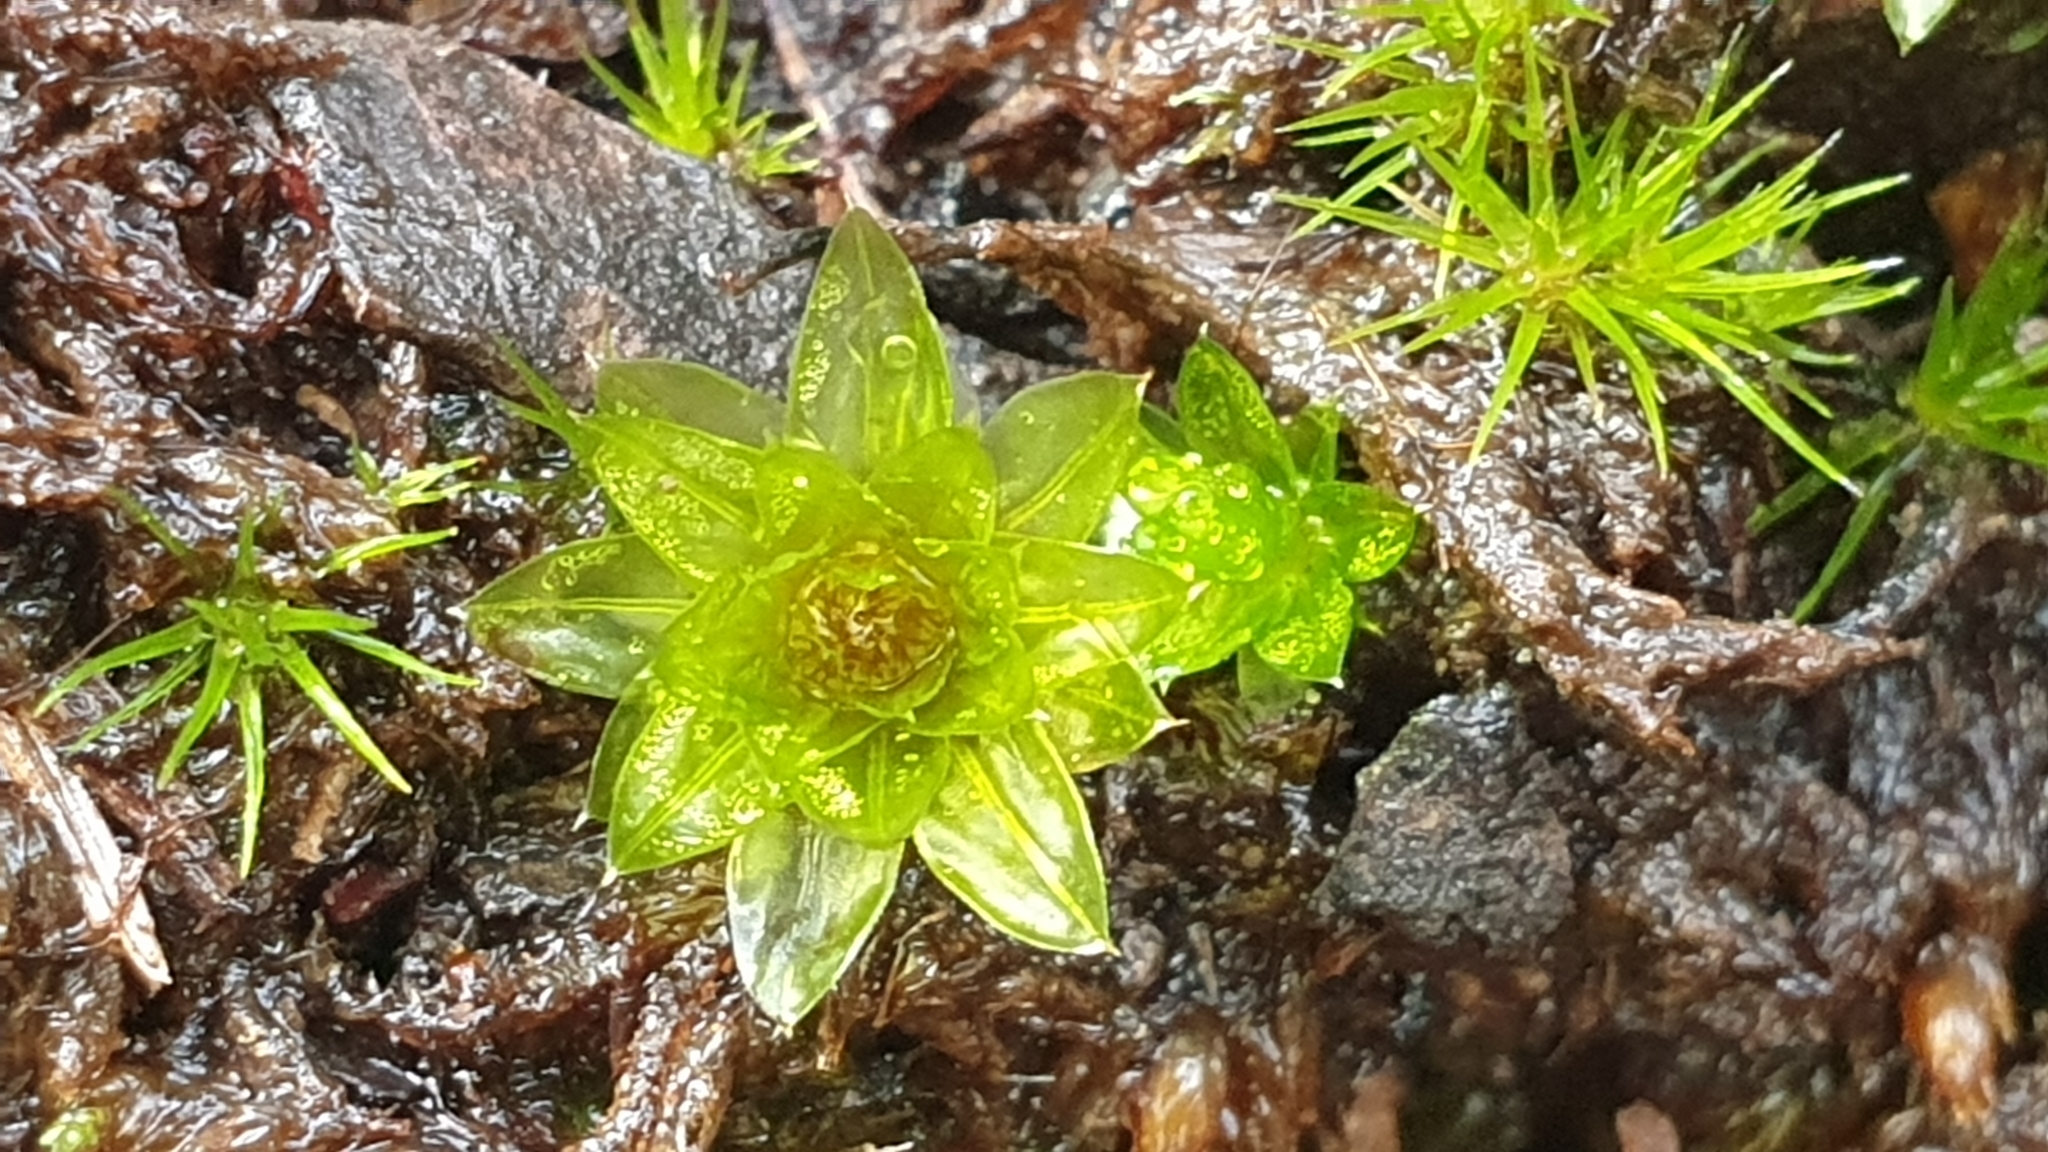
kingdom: Plantae
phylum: Bryophyta
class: Bryopsida
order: Bryales
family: Bryaceae
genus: Rosulabryum
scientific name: Rosulabryum billardierei
